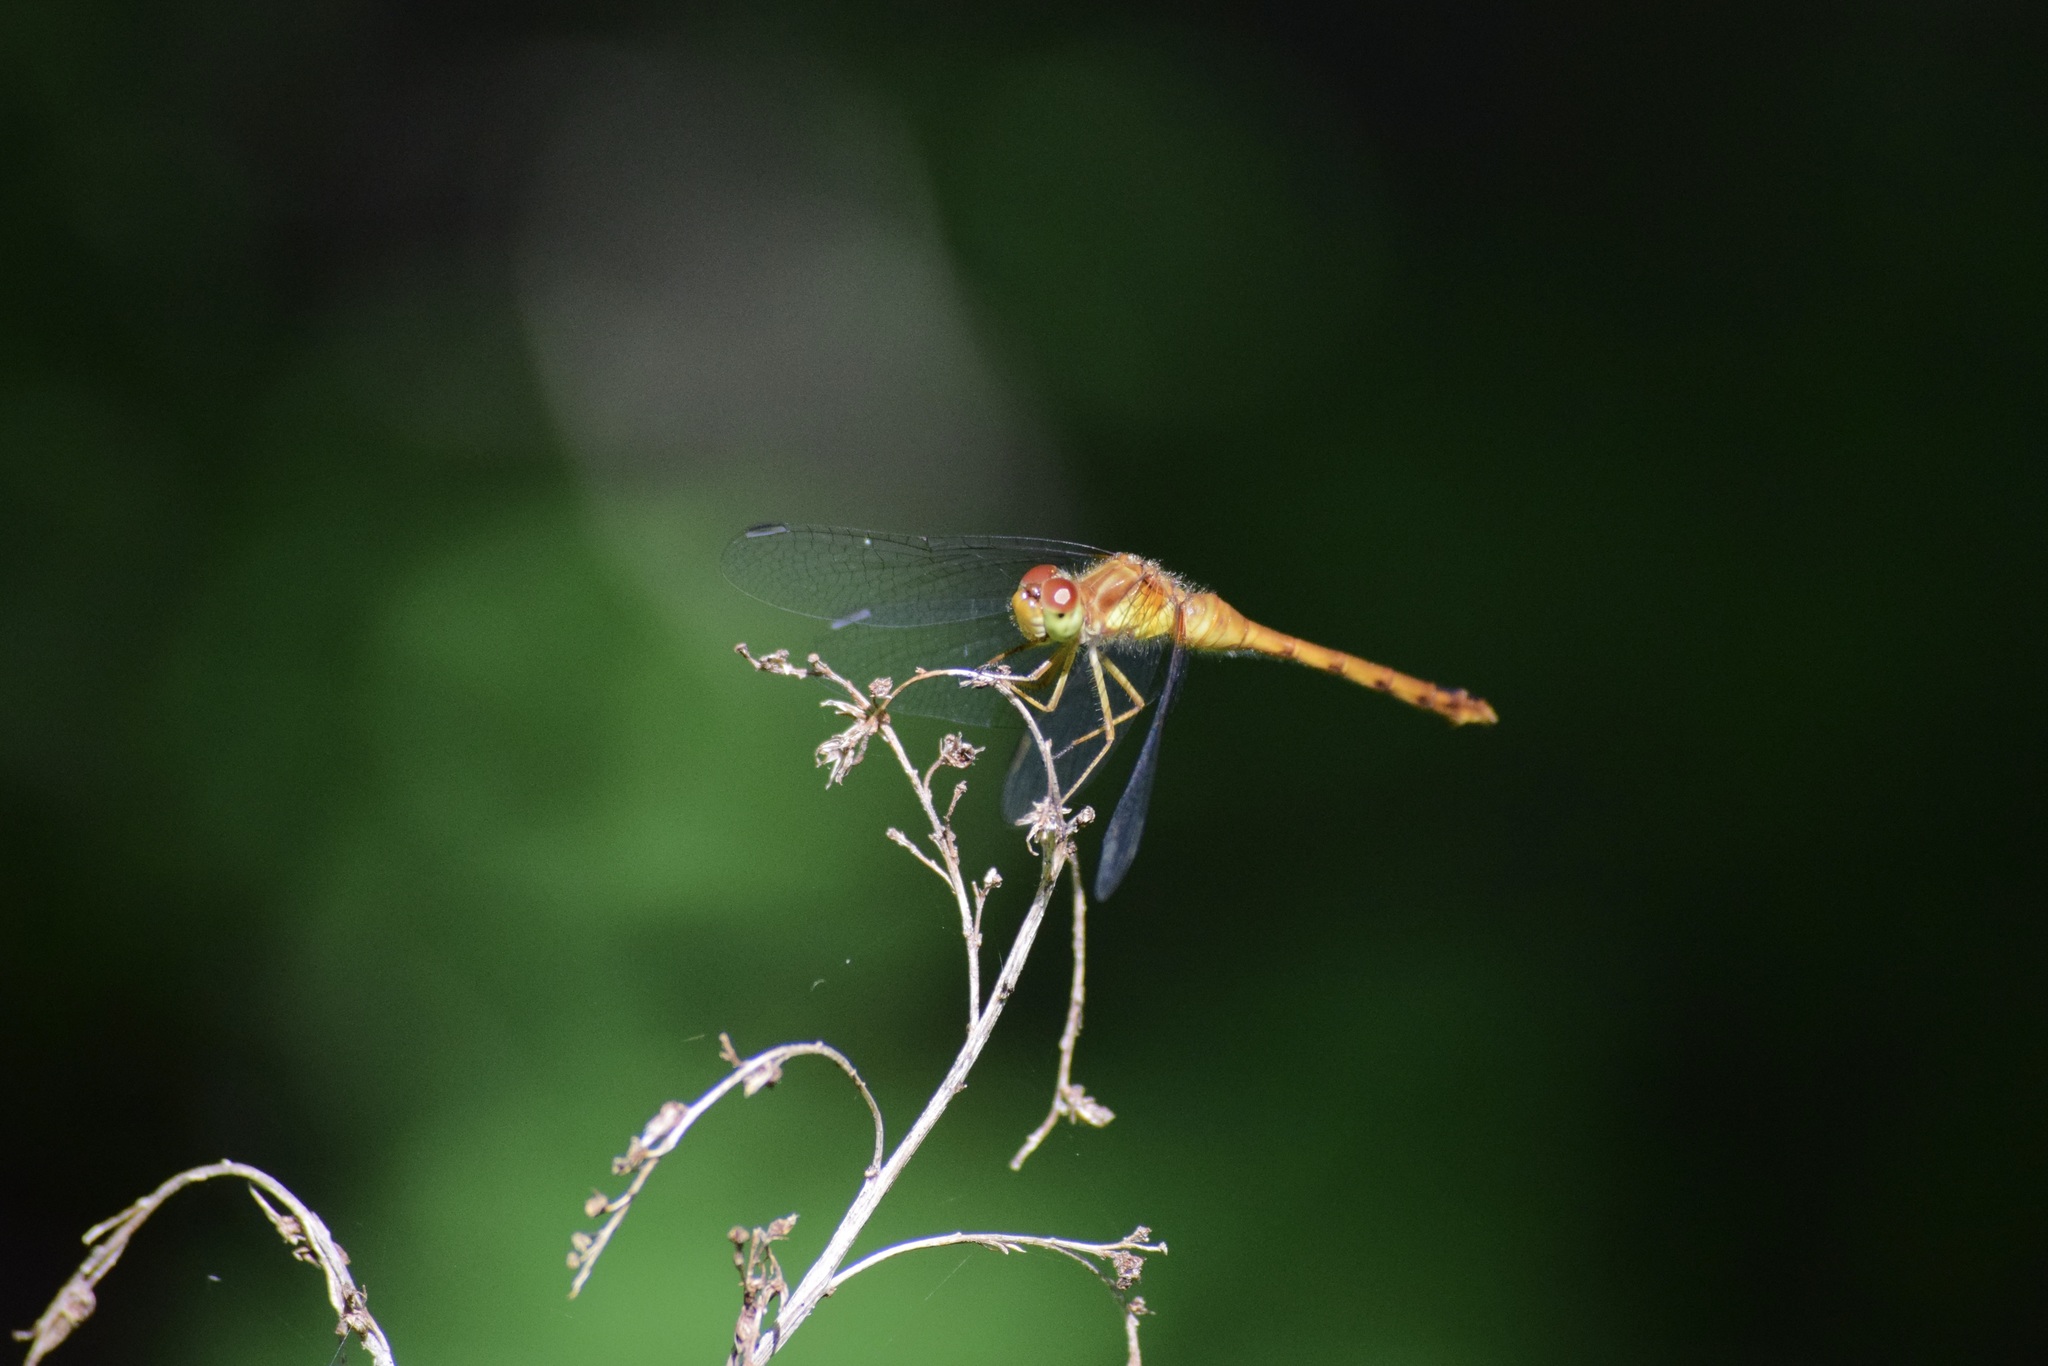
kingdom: Animalia
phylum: Arthropoda
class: Insecta
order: Odonata
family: Libellulidae
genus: Sympetrum
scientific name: Sympetrum vicinum
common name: Autumn meadowhawk
